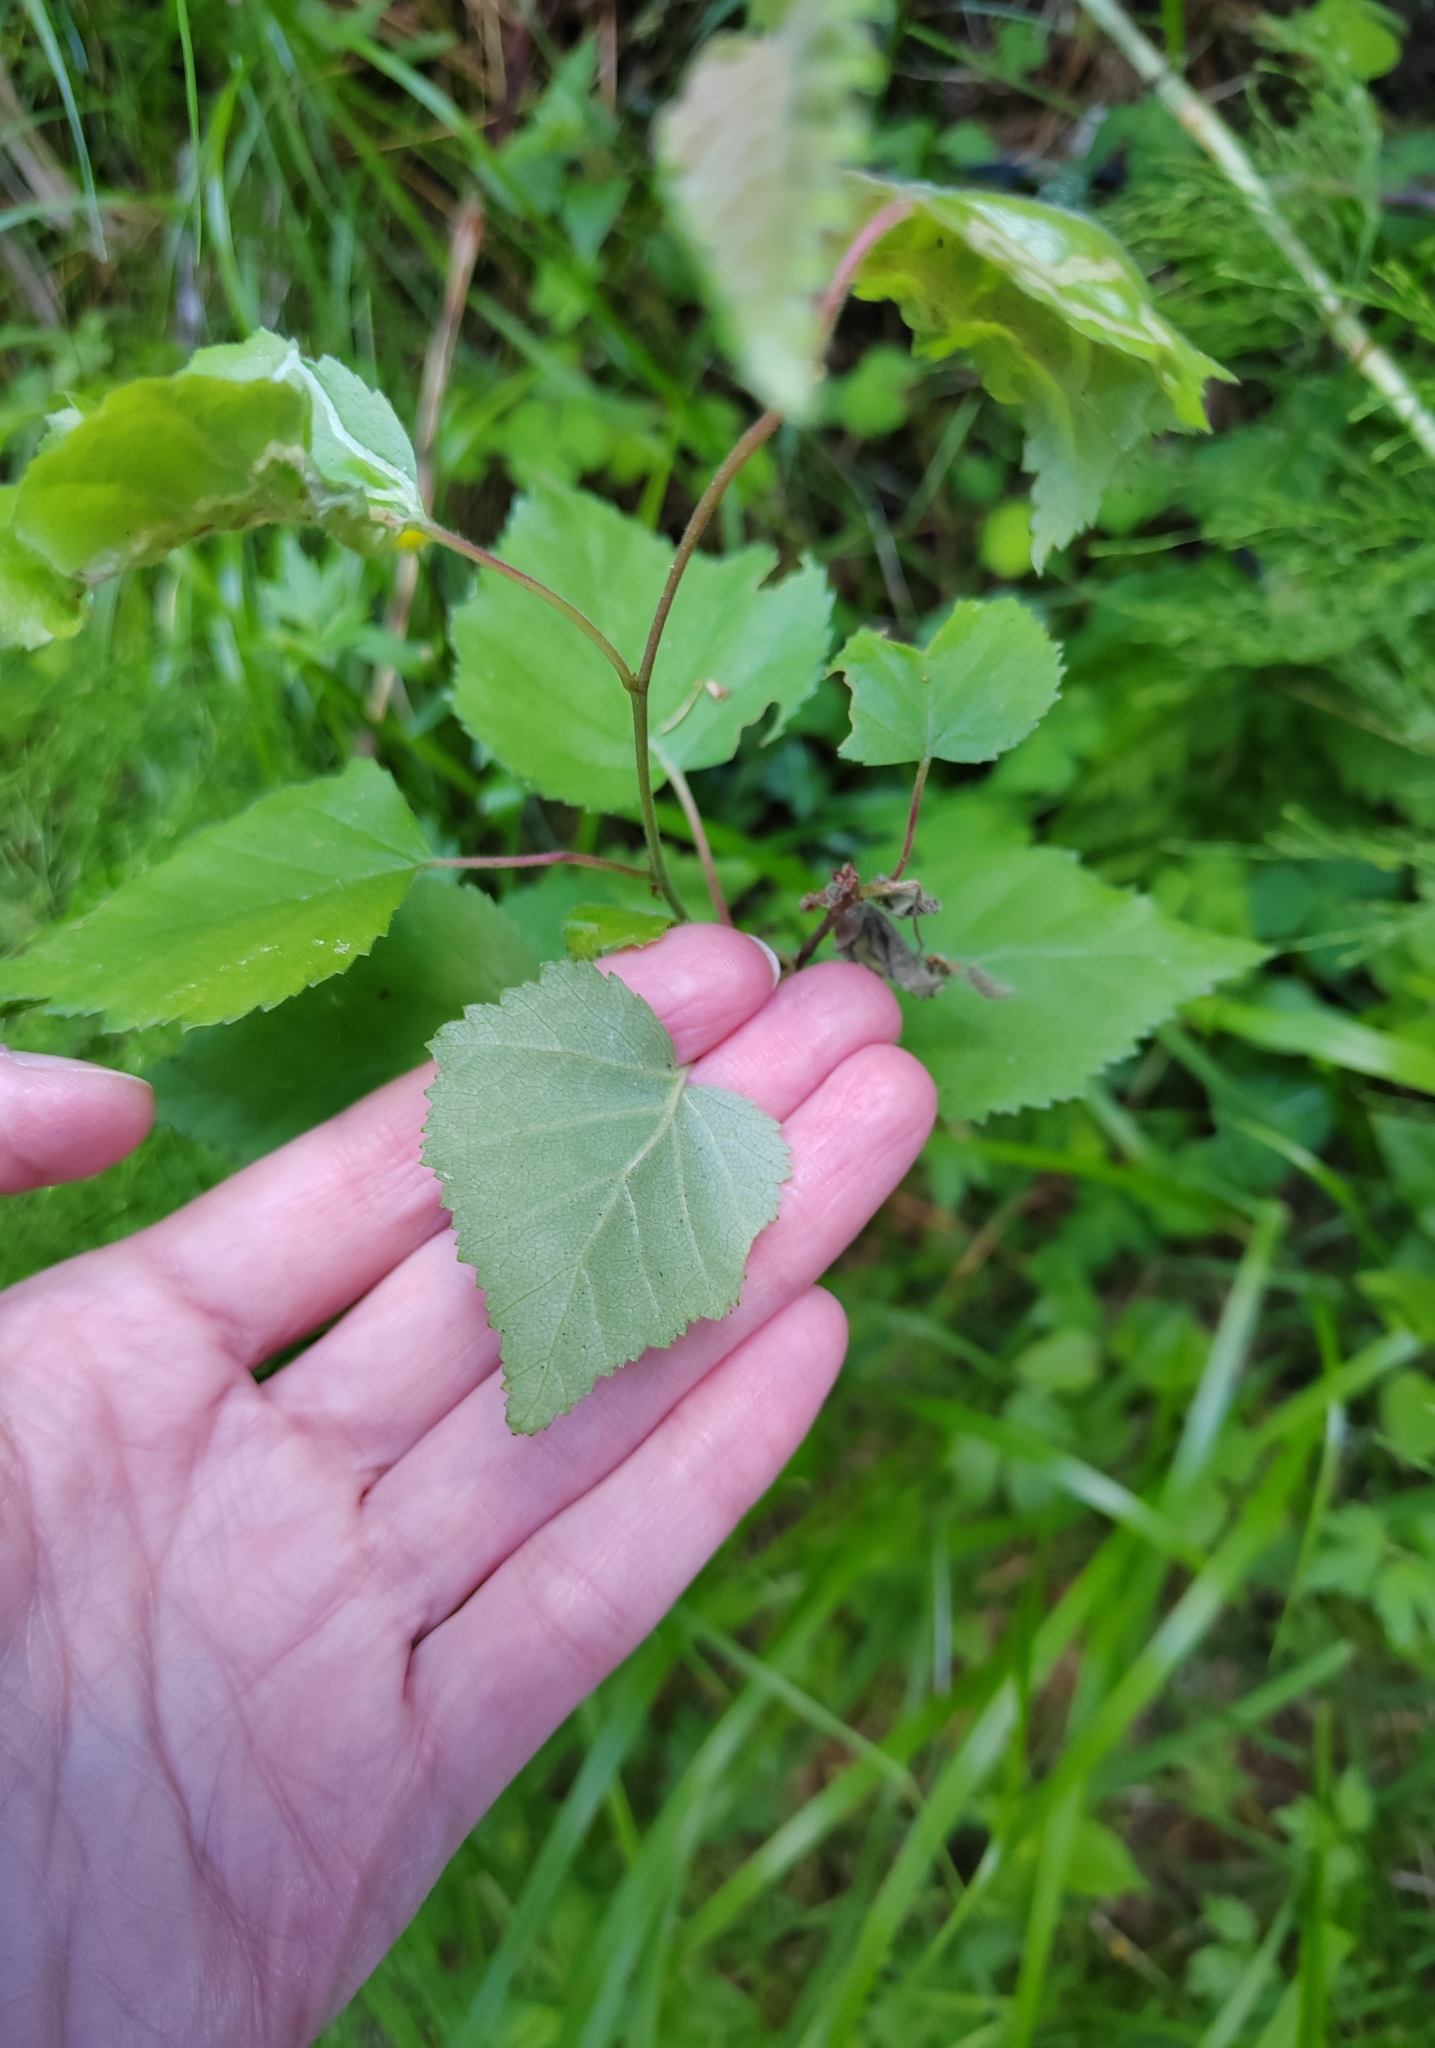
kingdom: Plantae
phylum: Tracheophyta
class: Magnoliopsida
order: Fagales
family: Betulaceae
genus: Betula
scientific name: Betula pubescens
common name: Downy birch
